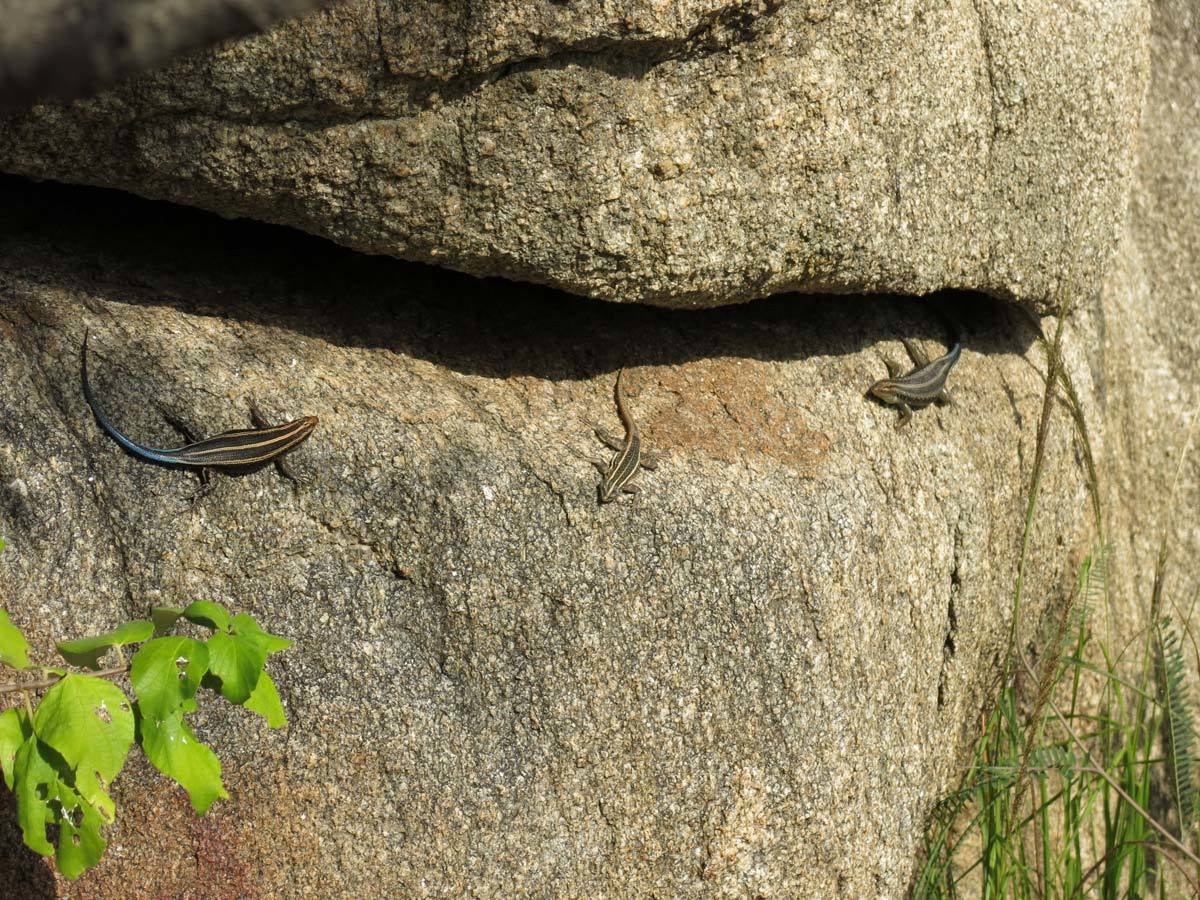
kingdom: Animalia
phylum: Chordata
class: Squamata
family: Scincidae
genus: Trachylepis
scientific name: Trachylepis margaritifera
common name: Rainbow skink
